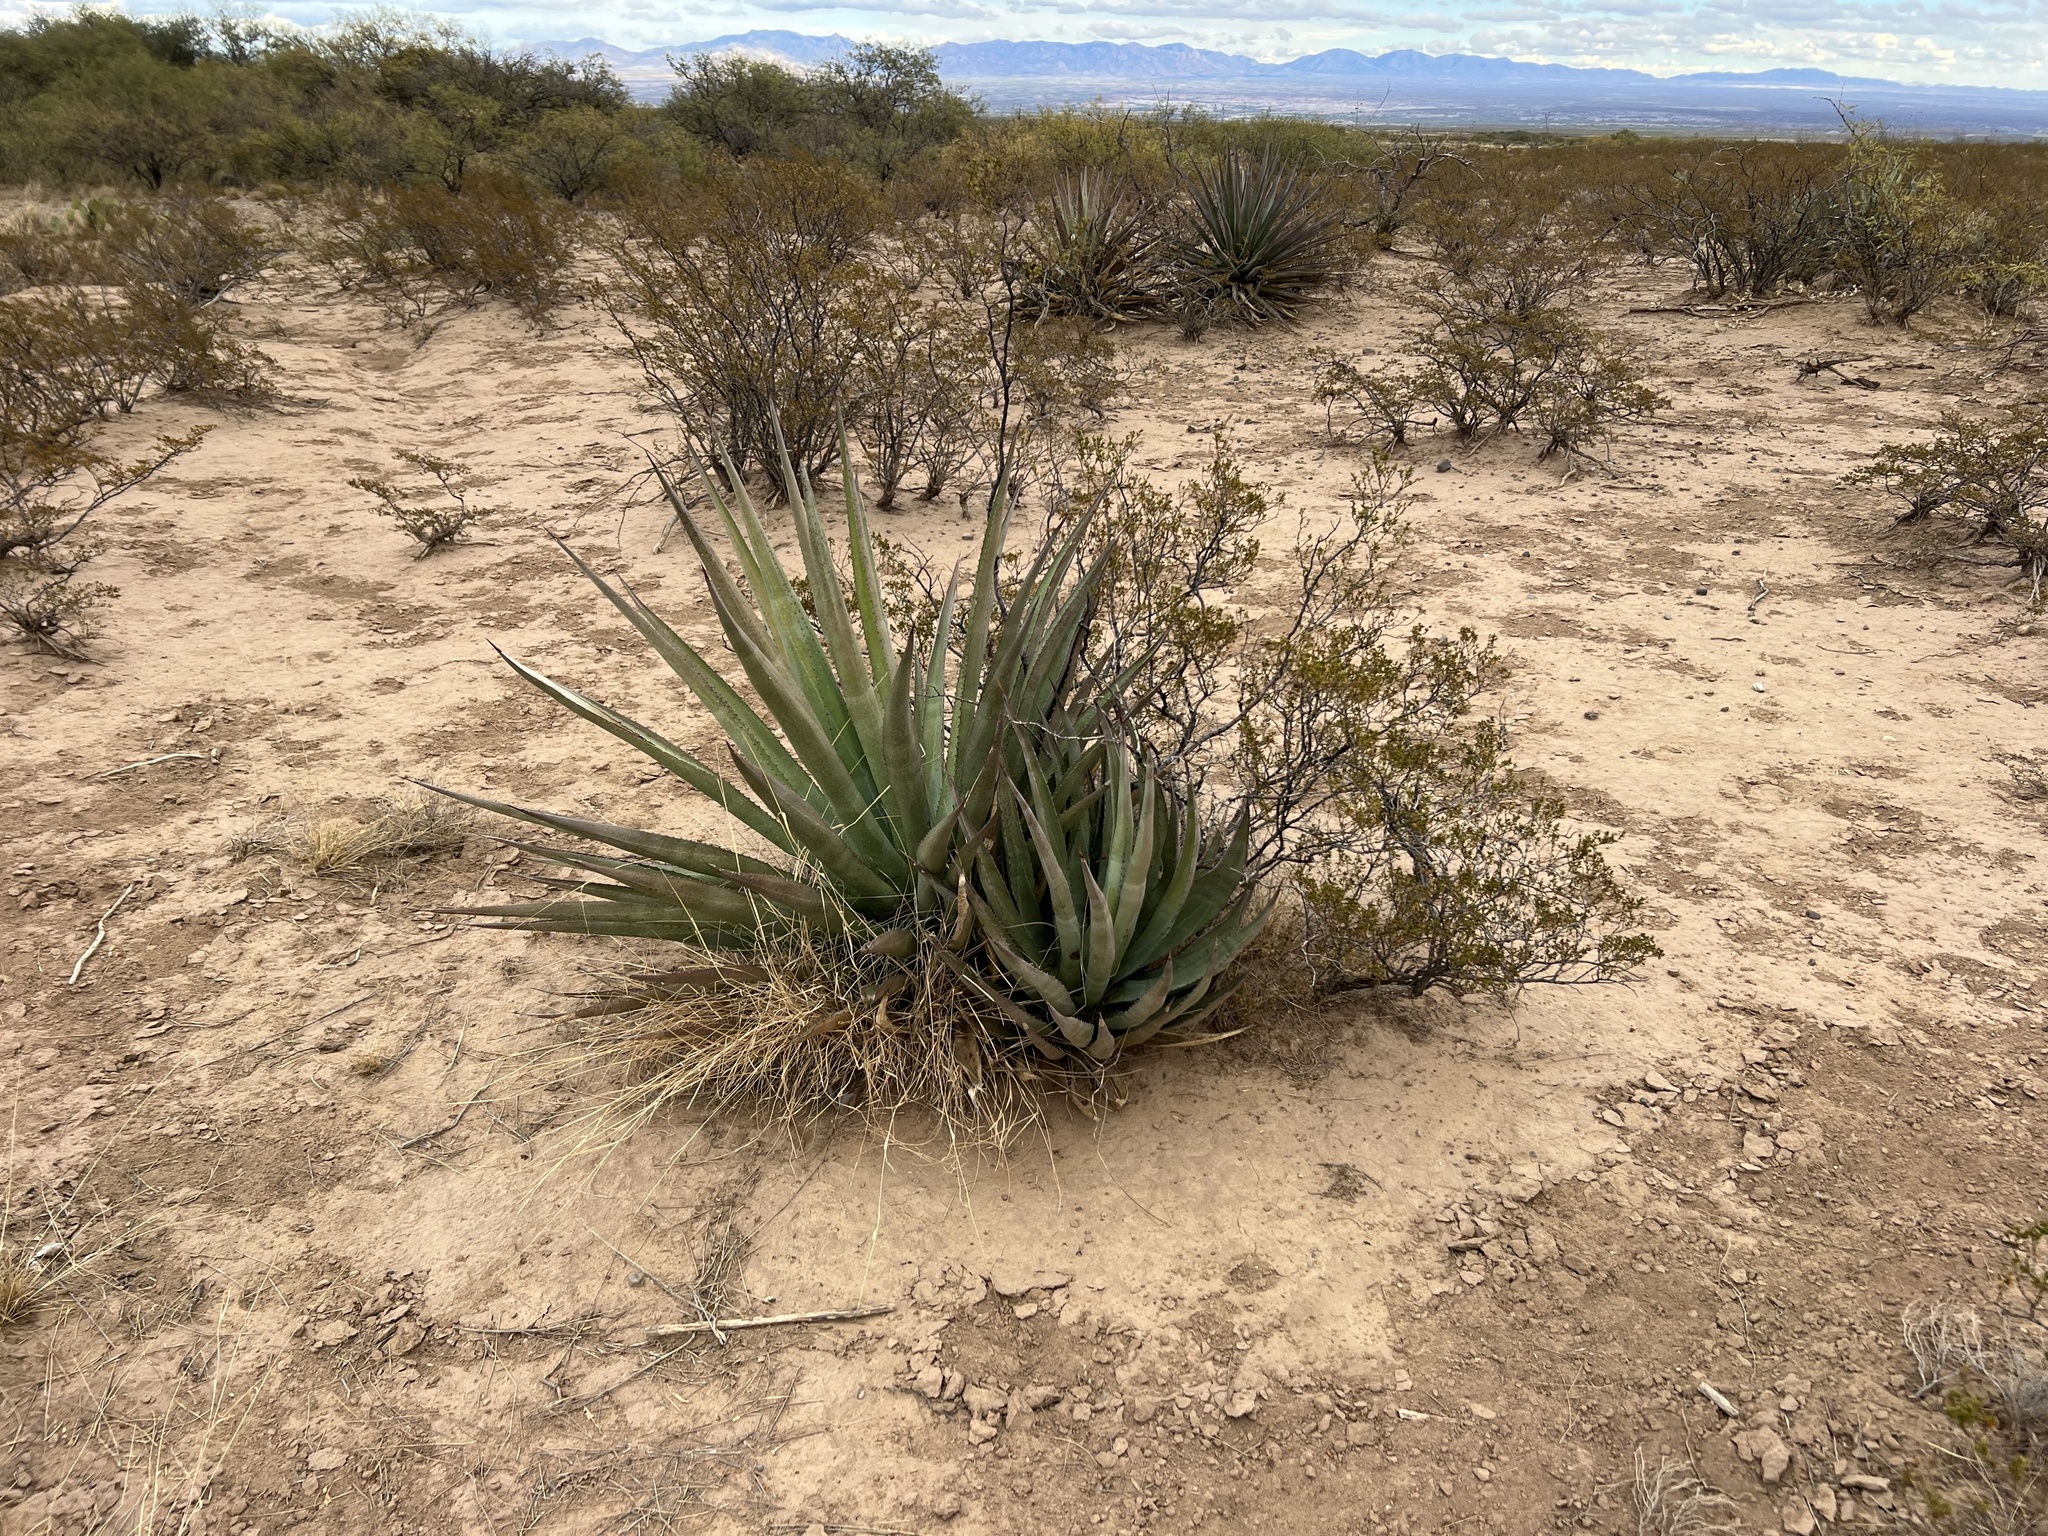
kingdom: Plantae
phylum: Tracheophyta
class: Liliopsida
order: Asparagales
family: Asparagaceae
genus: Agave
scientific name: Agave palmeri
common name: Palmer agave
